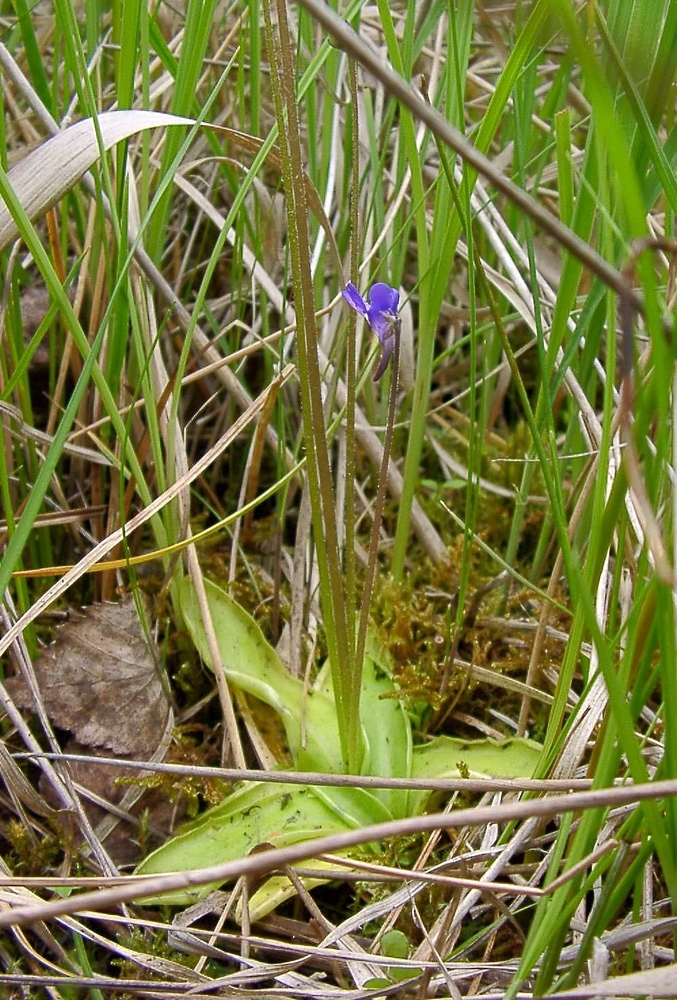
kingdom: Plantae
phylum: Tracheophyta
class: Magnoliopsida
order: Lamiales
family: Lentibulariaceae
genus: Pinguicula
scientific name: Pinguicula vulgaris
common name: Common butterwort
